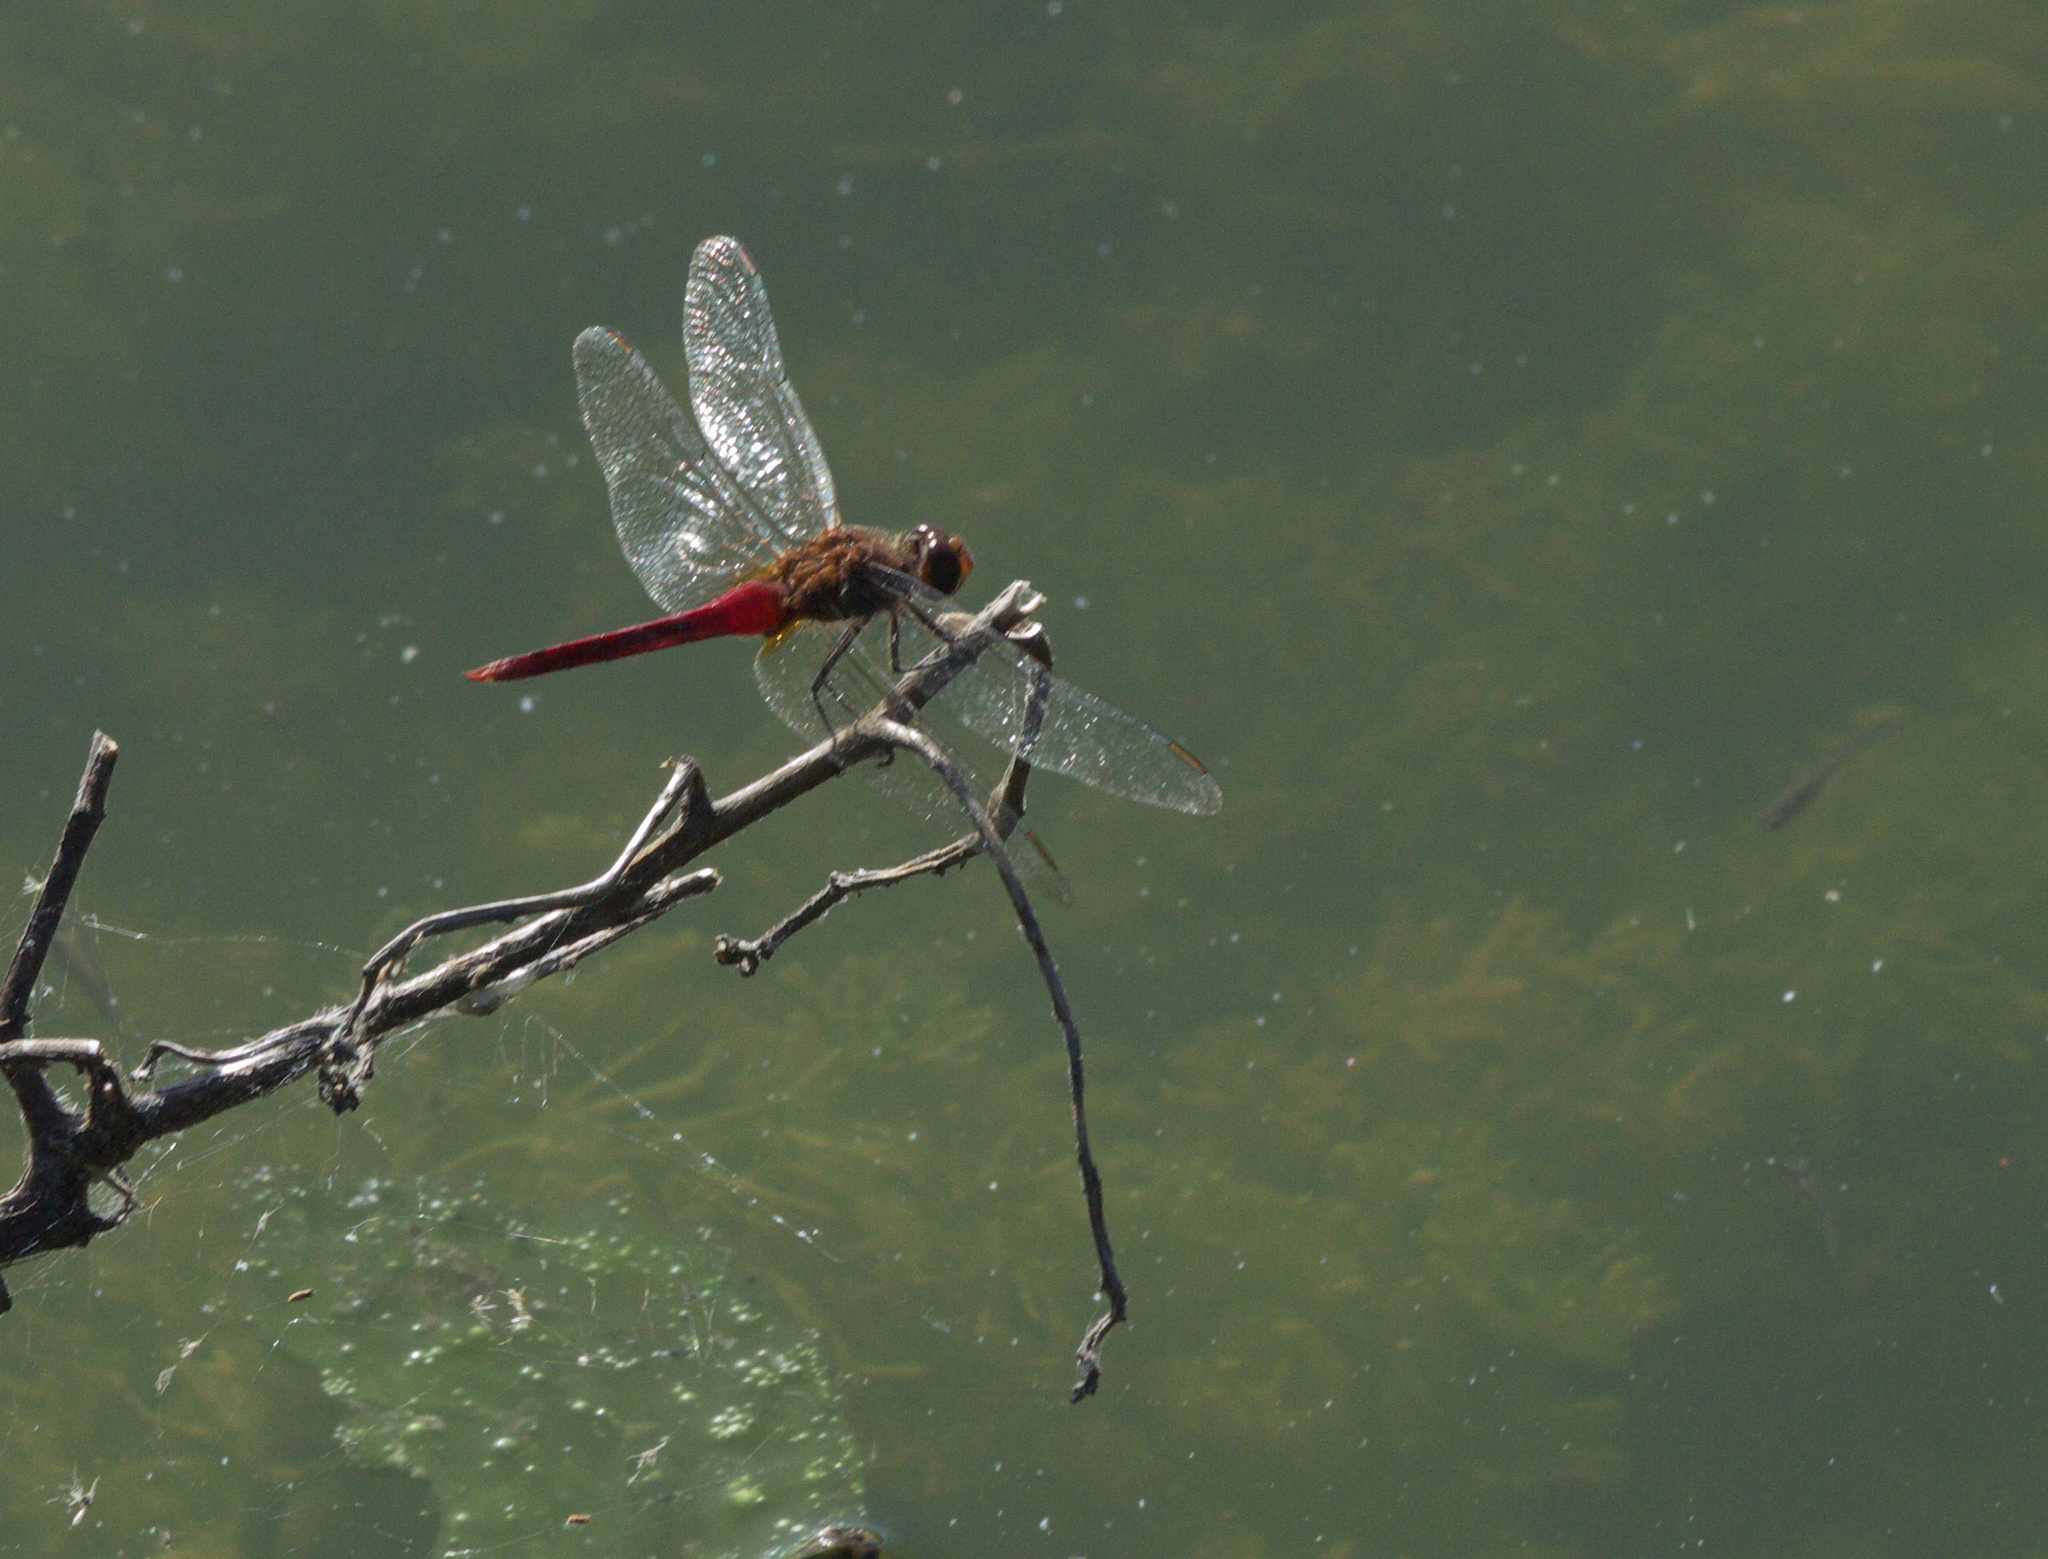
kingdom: Animalia
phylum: Arthropoda
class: Insecta
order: Odonata
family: Libellulidae
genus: Brachymesia
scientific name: Brachymesia furcata
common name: Red-taled pennant
